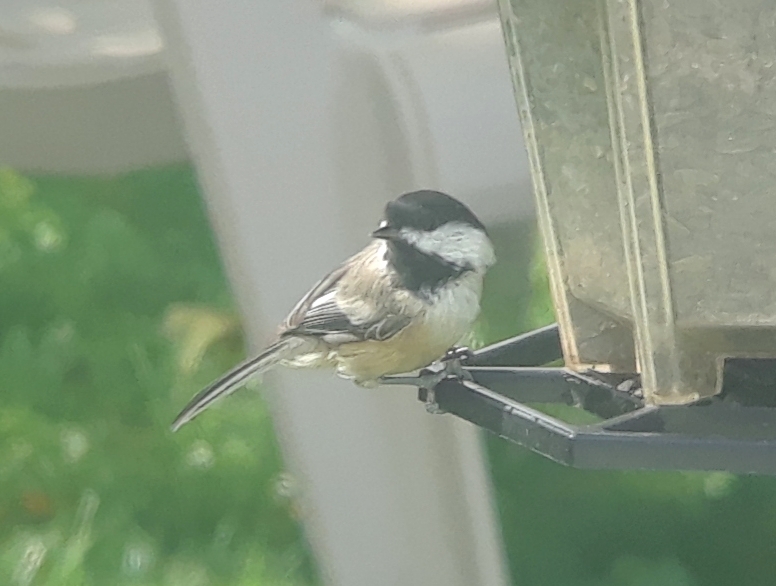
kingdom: Animalia
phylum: Chordata
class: Aves
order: Passeriformes
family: Paridae
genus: Poecile
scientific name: Poecile atricapillus
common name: Black-capped chickadee
